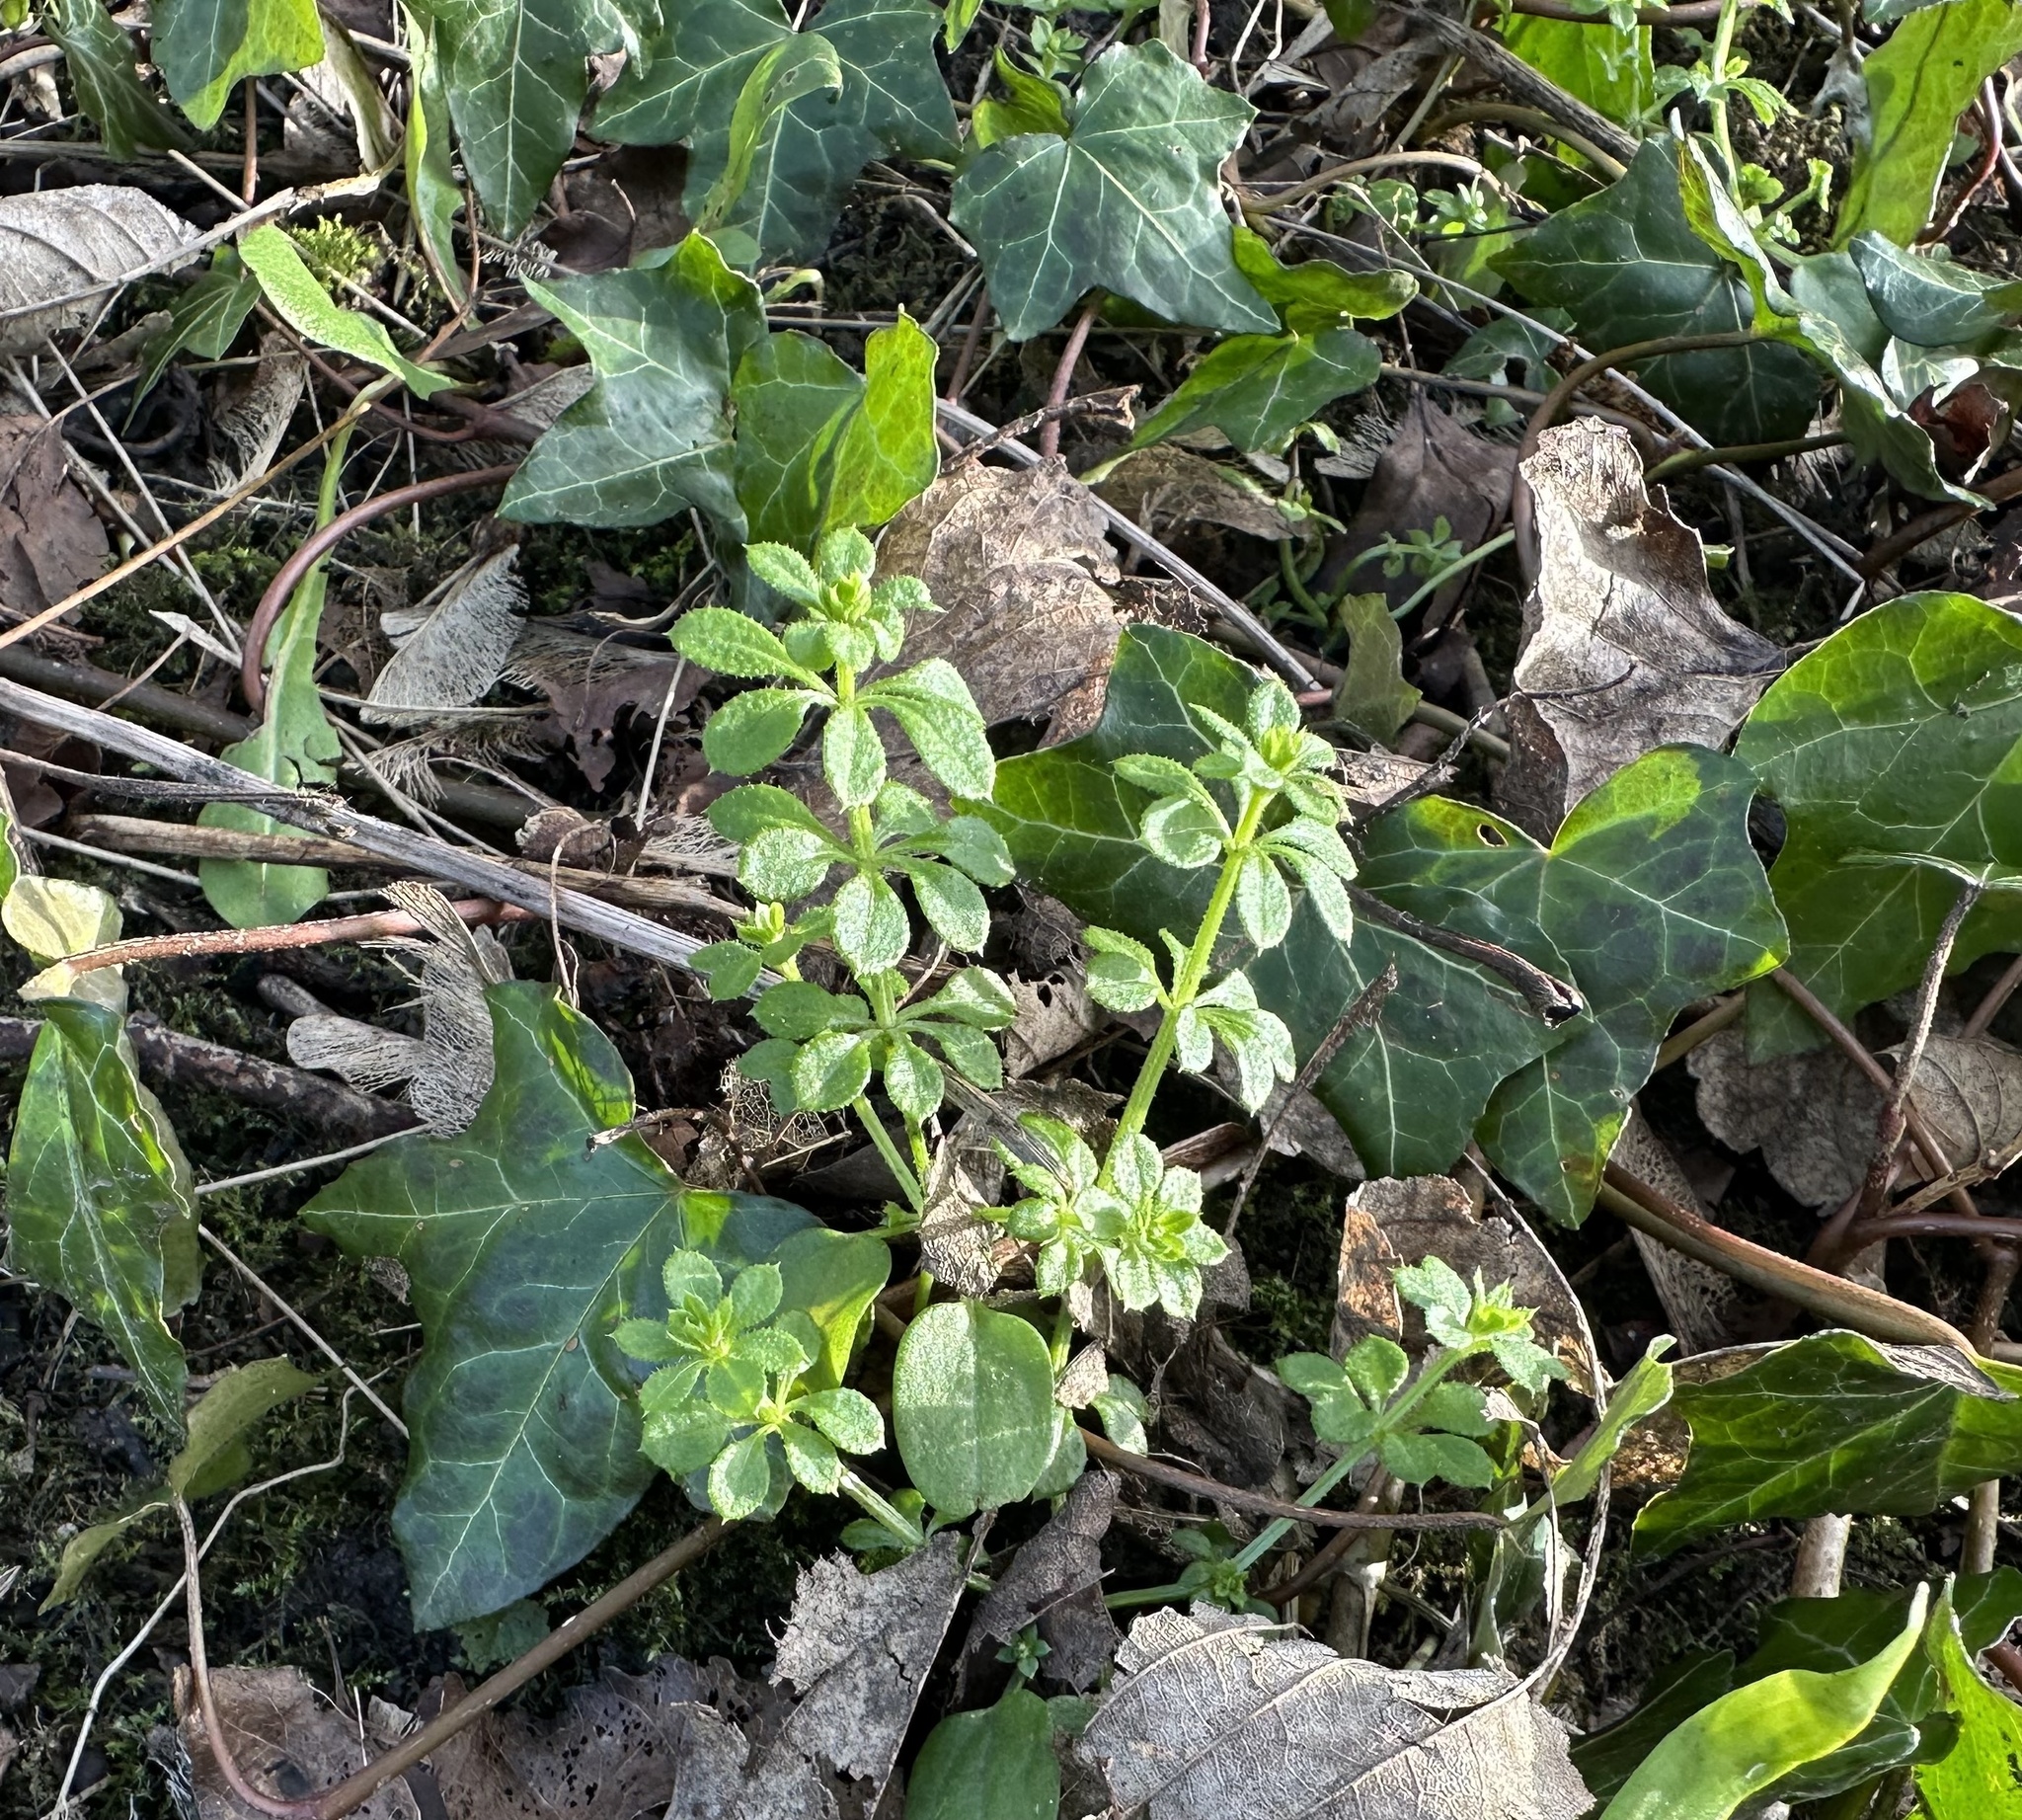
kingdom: Plantae
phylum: Tracheophyta
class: Magnoliopsida
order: Gentianales
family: Rubiaceae
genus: Galium
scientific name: Galium aparine
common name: Cleavers
